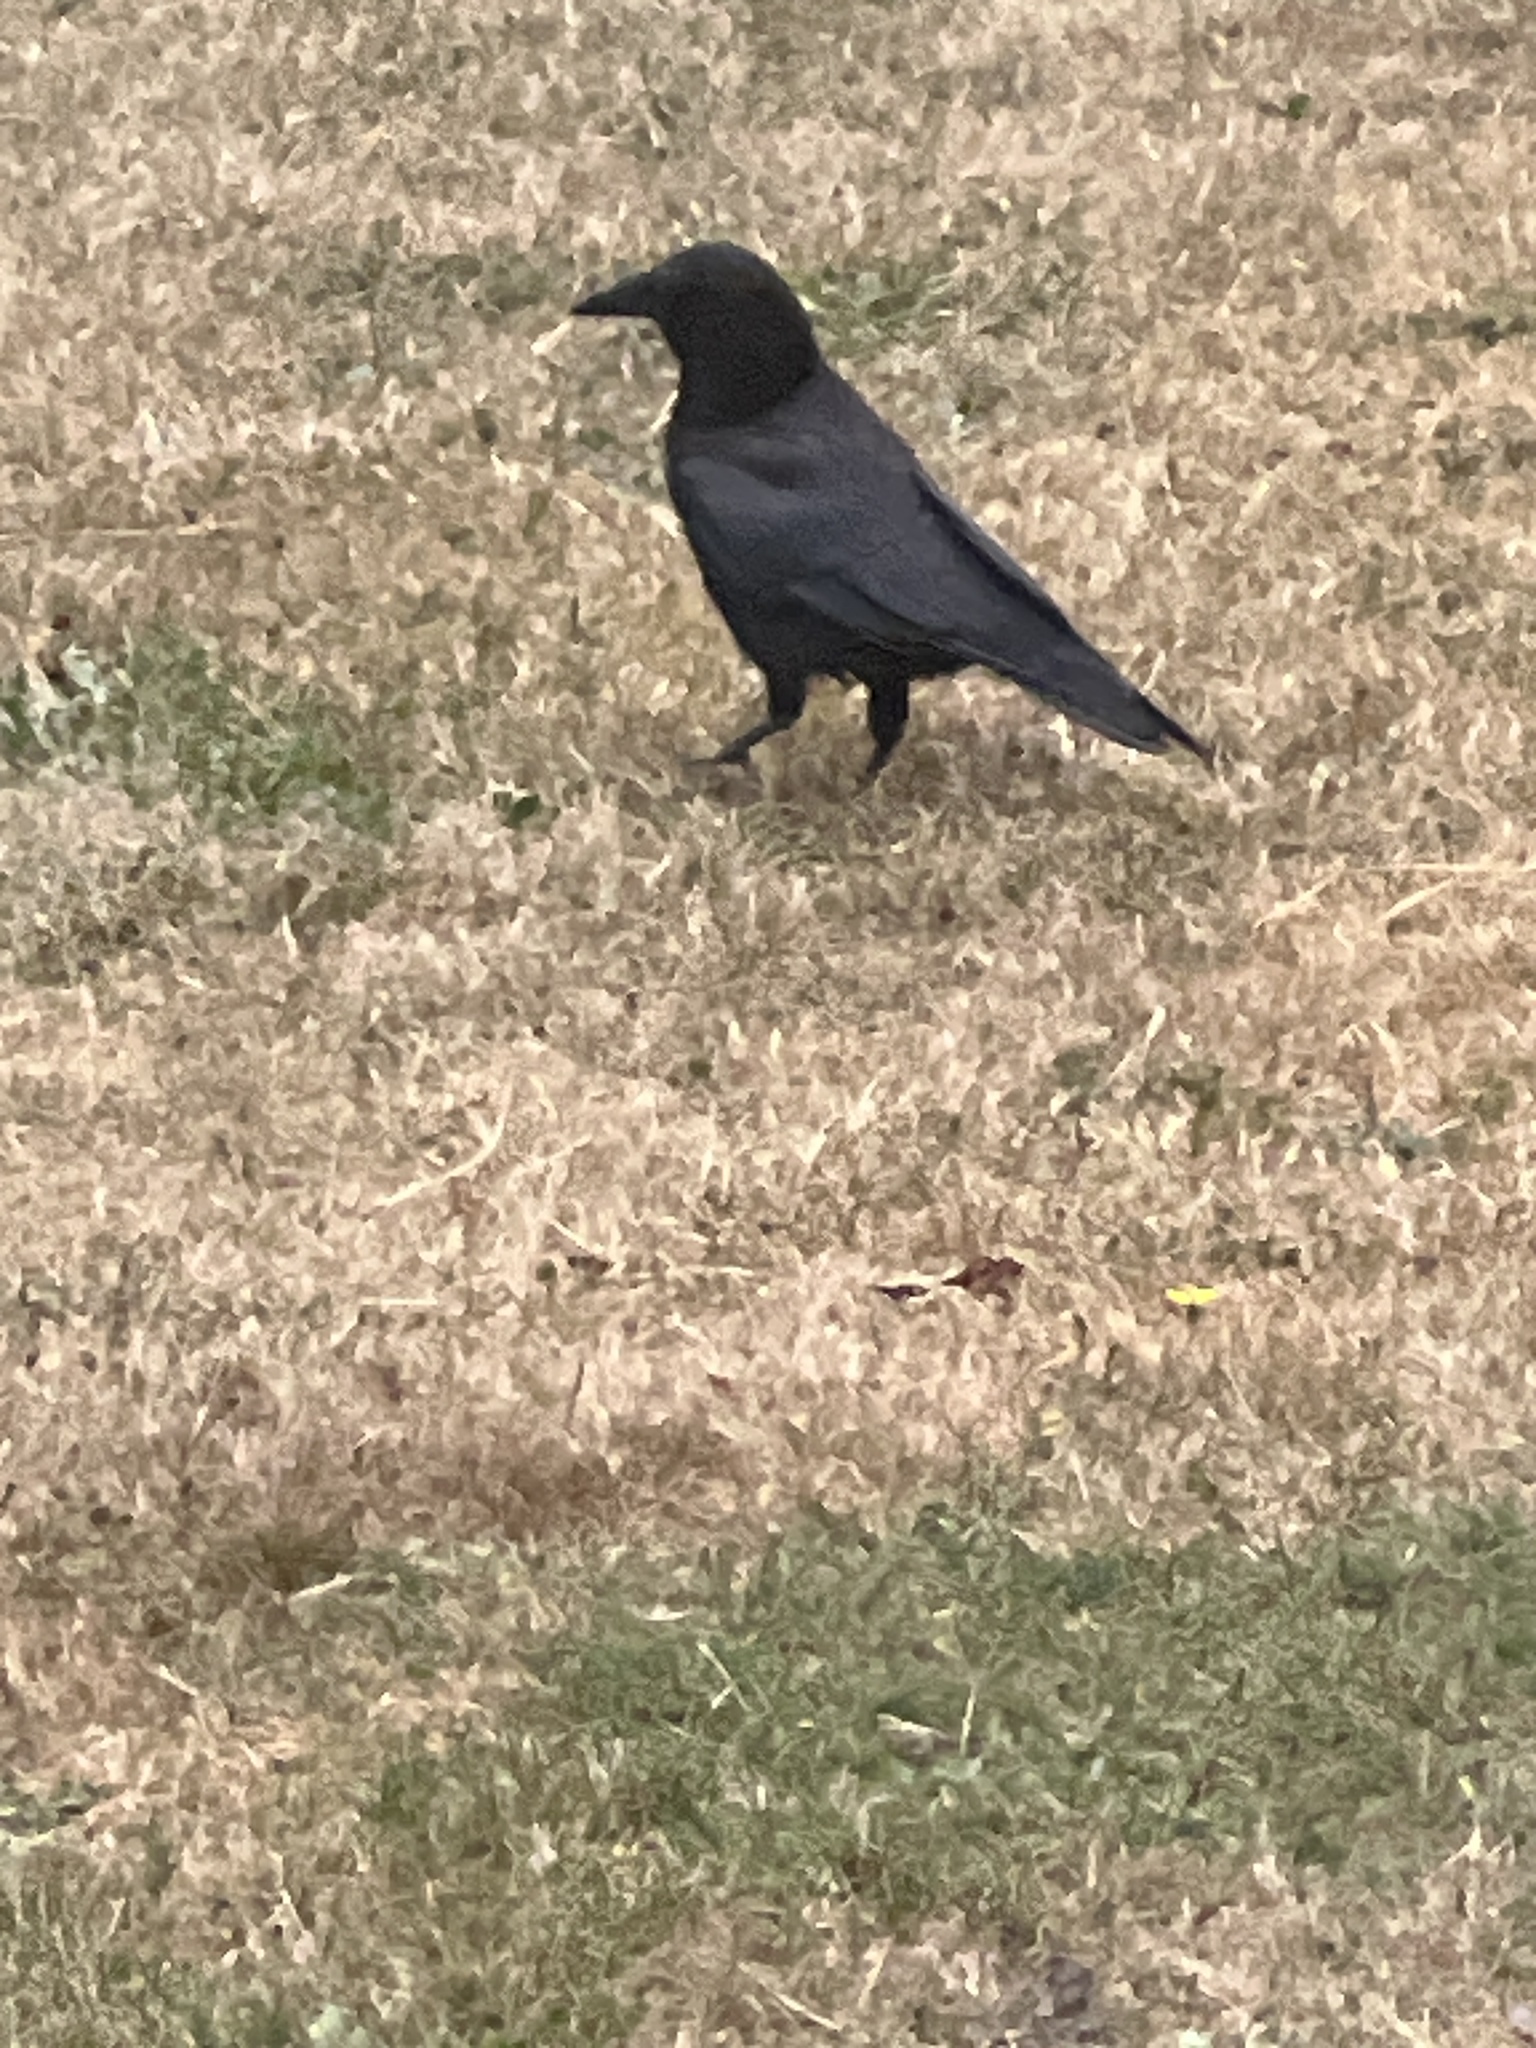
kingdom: Animalia
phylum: Chordata
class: Aves
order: Passeriformes
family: Corvidae
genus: Corvus
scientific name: Corvus brachyrhynchos
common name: American crow
